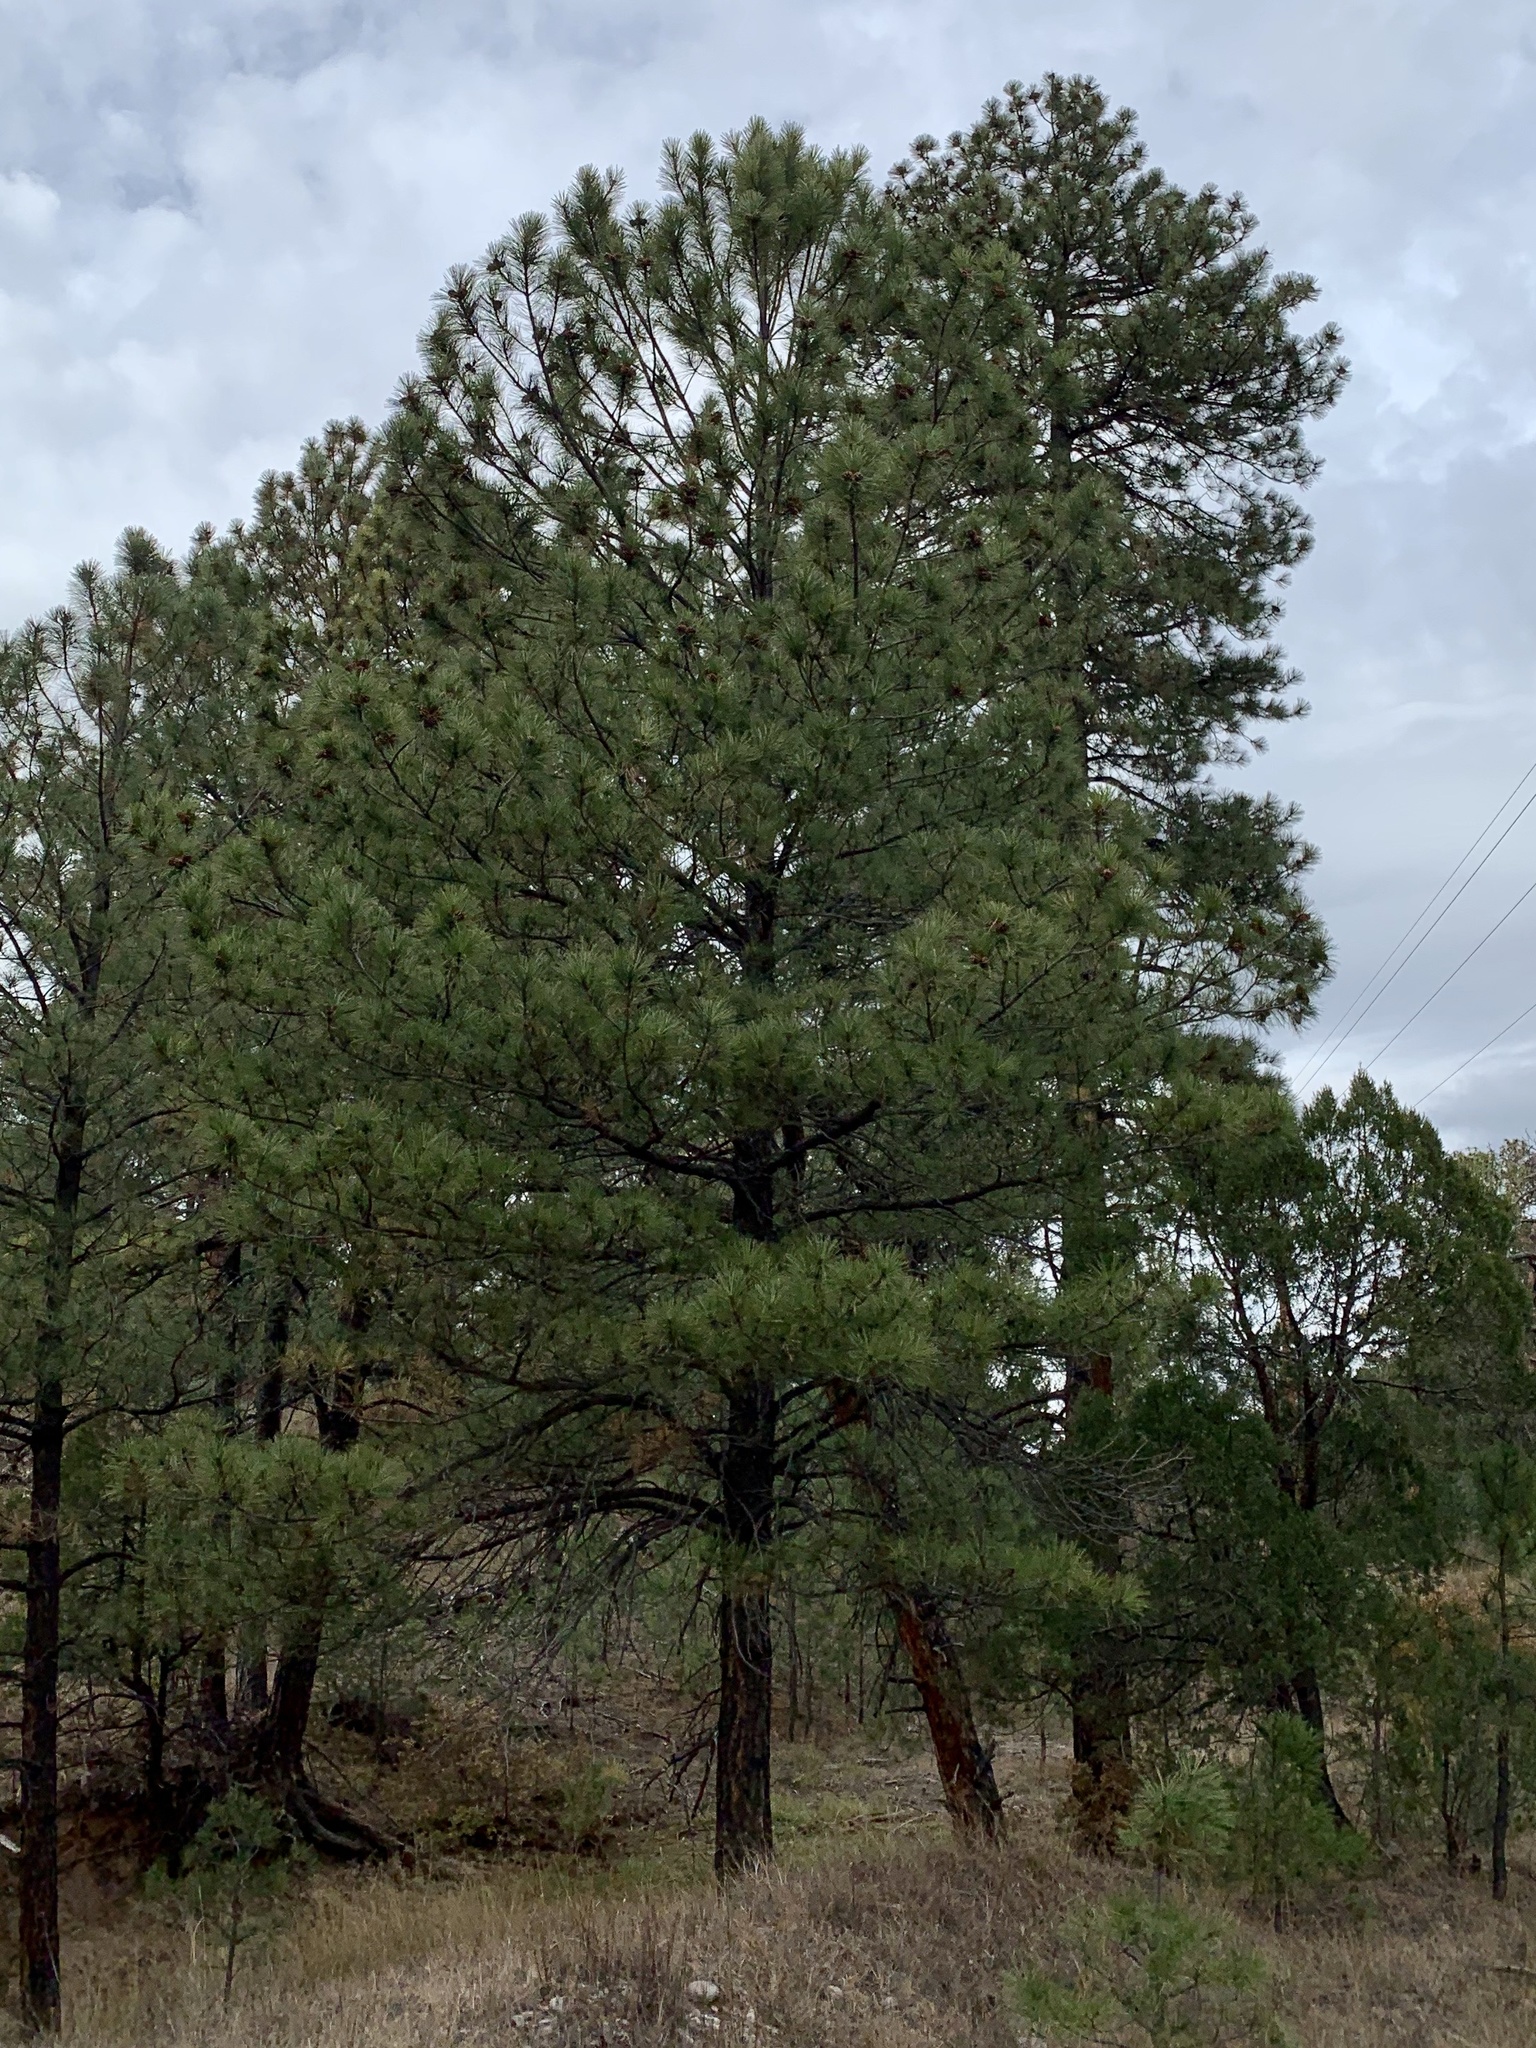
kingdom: Plantae
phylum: Tracheophyta
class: Pinopsida
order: Pinales
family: Pinaceae
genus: Pinus
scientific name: Pinus ponderosa
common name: Western yellow-pine
